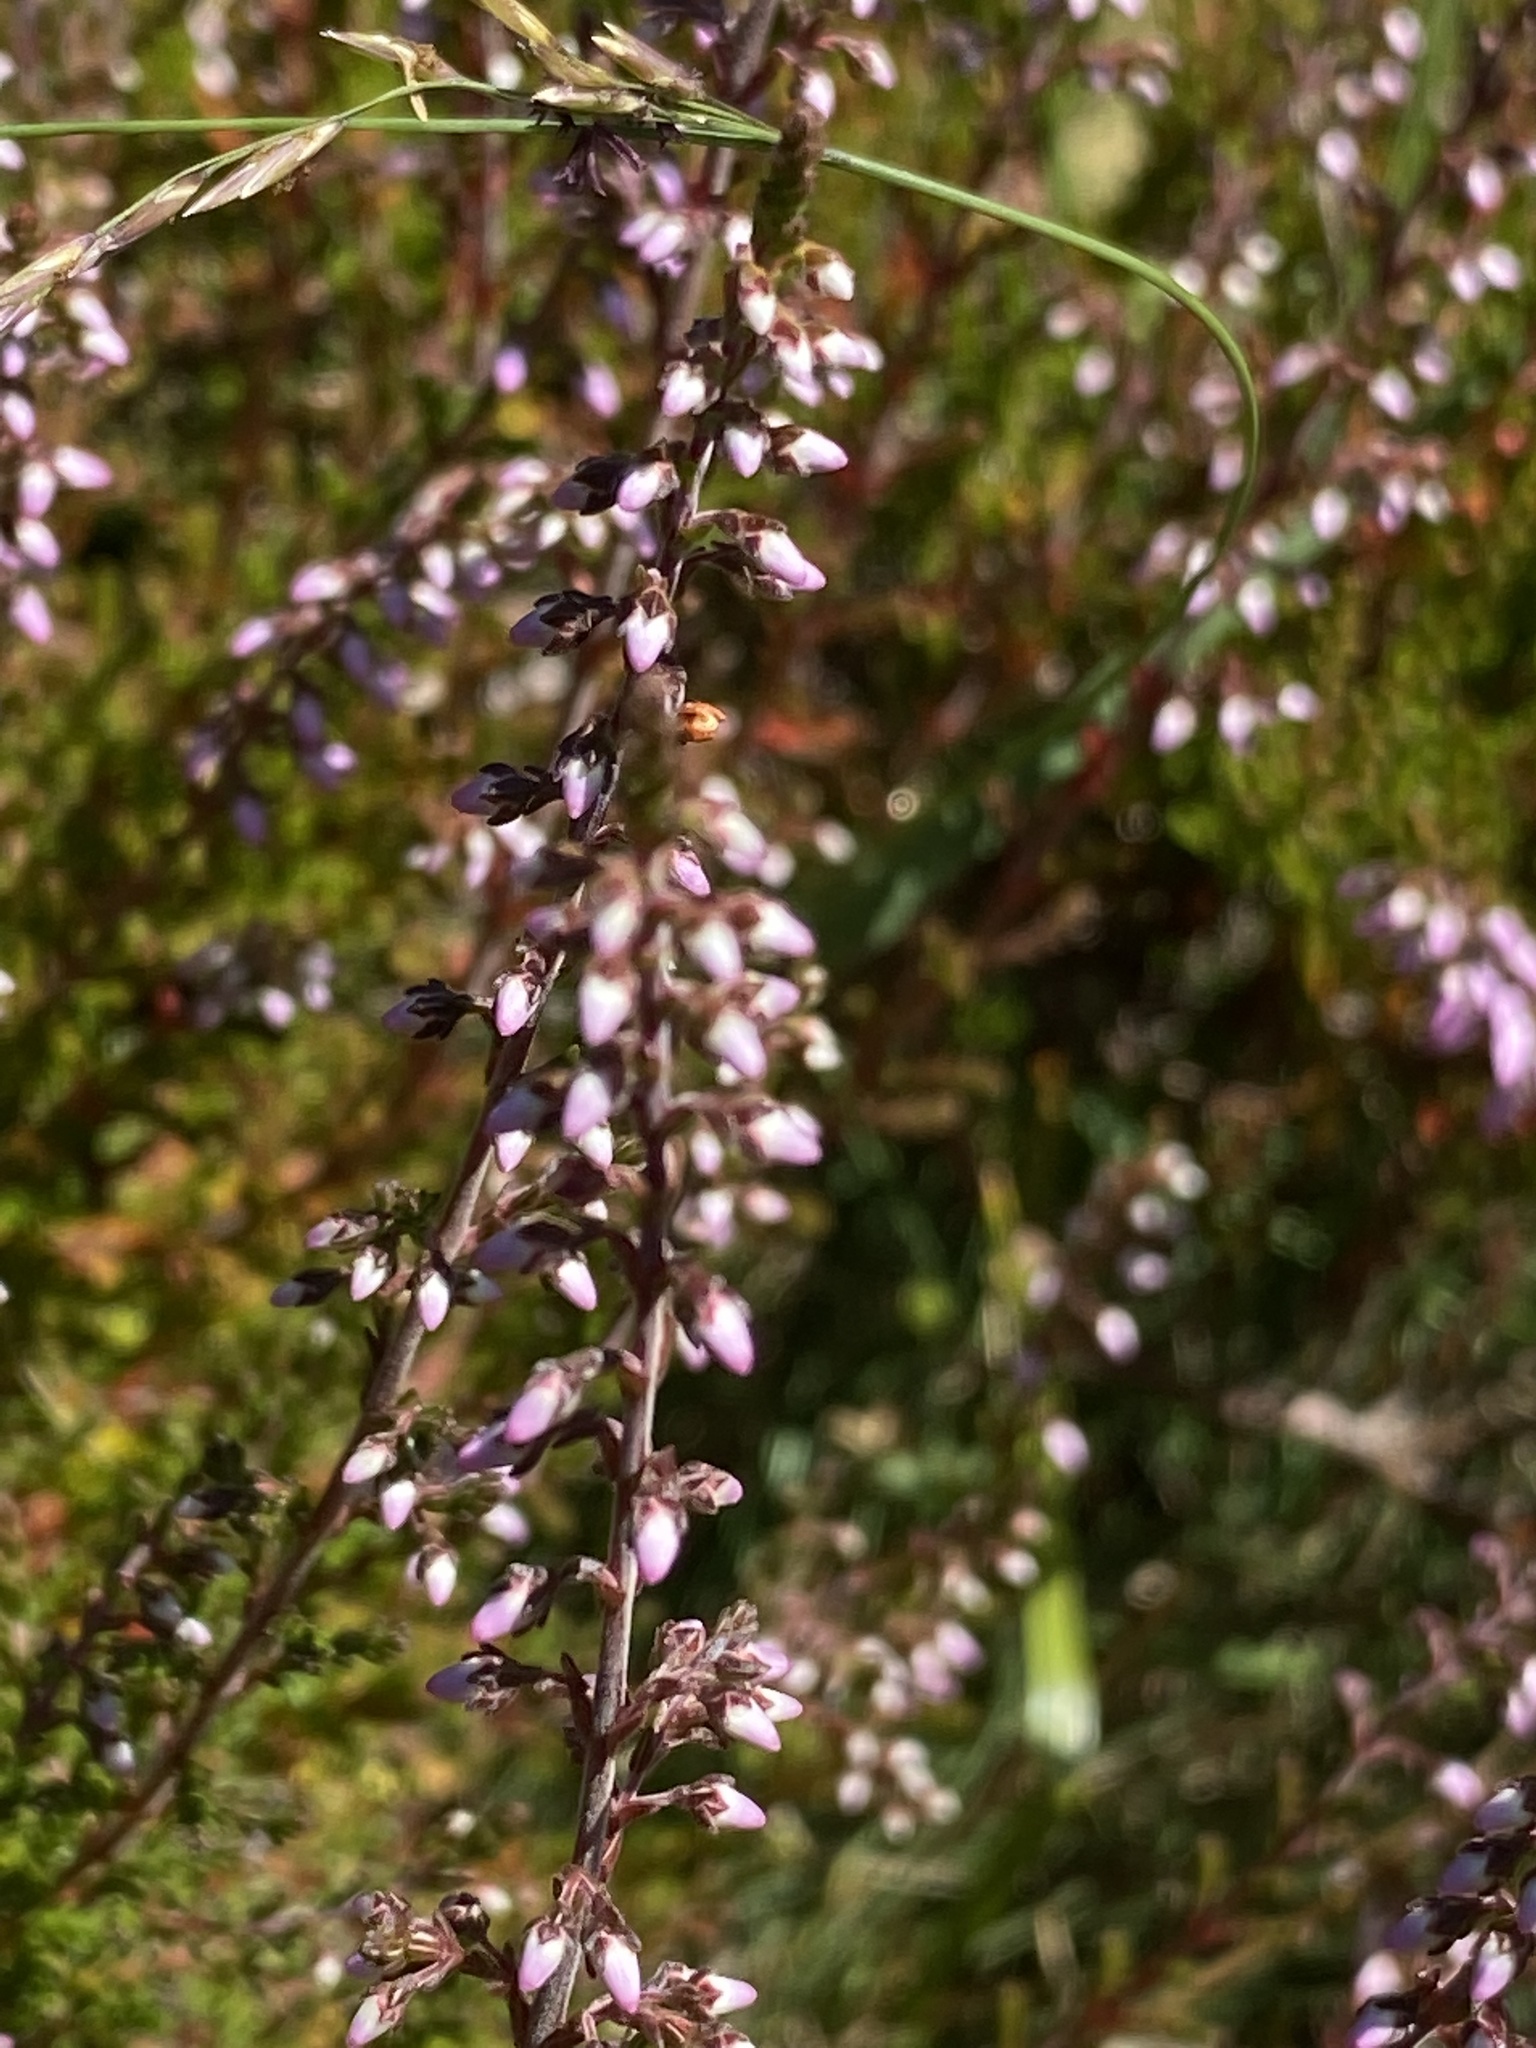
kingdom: Plantae
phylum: Tracheophyta
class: Magnoliopsida
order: Ericales
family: Ericaceae
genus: Calluna
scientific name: Calluna vulgaris
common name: Heather
